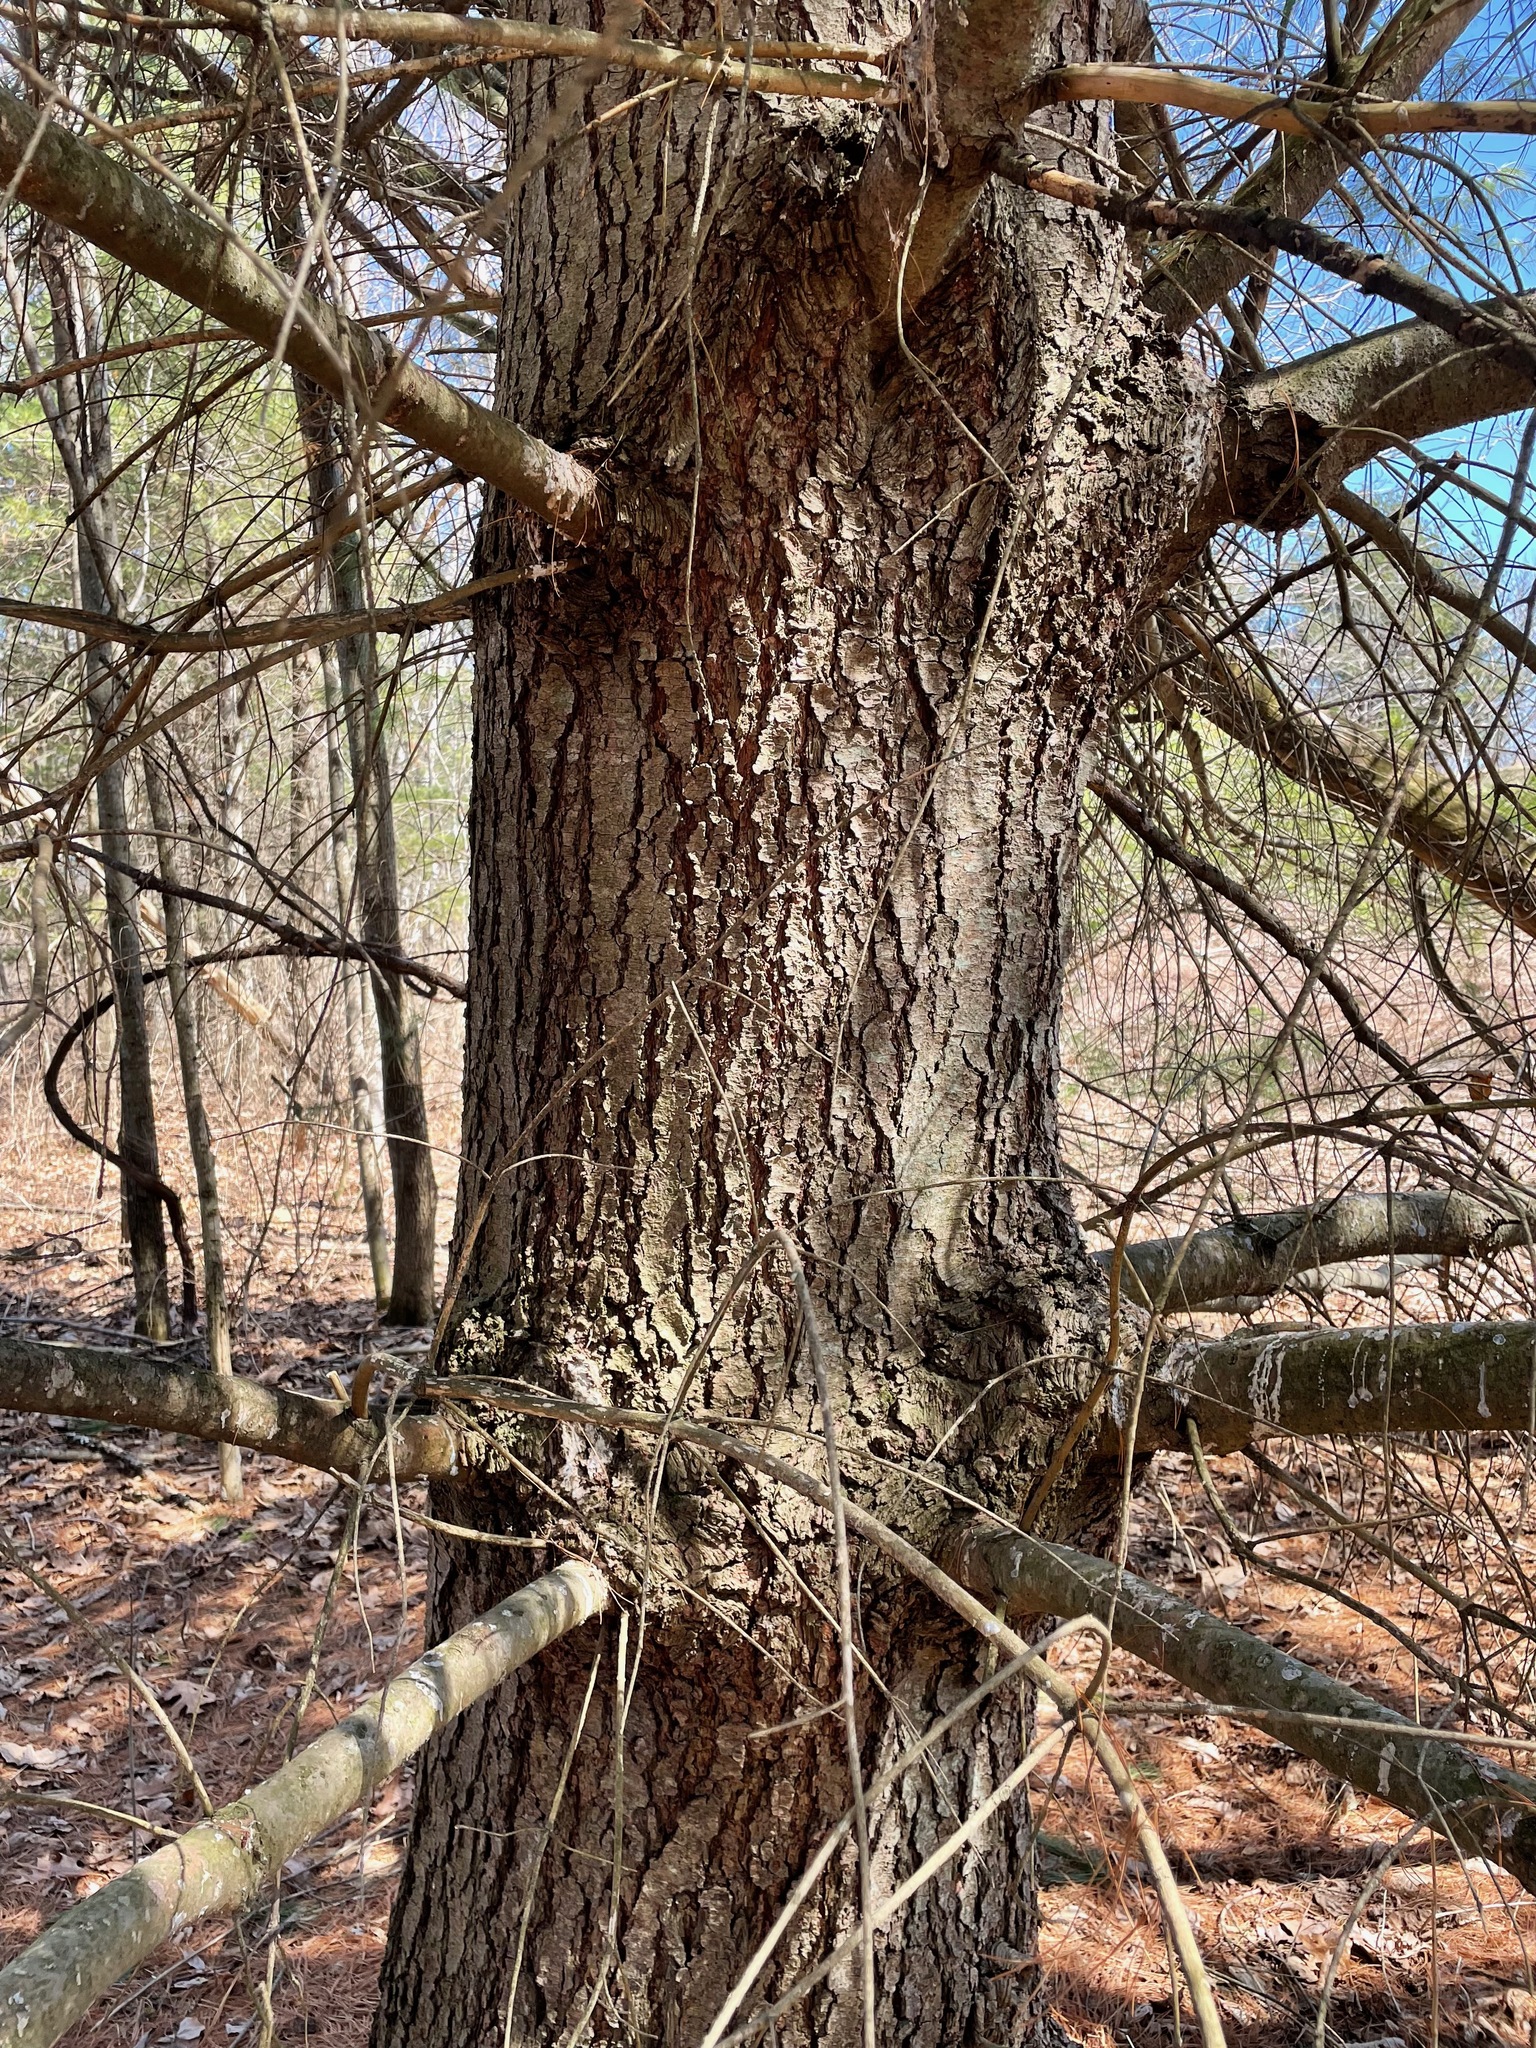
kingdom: Plantae
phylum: Tracheophyta
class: Pinopsida
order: Pinales
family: Pinaceae
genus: Pinus
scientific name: Pinus strobus
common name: Weymouth pine
